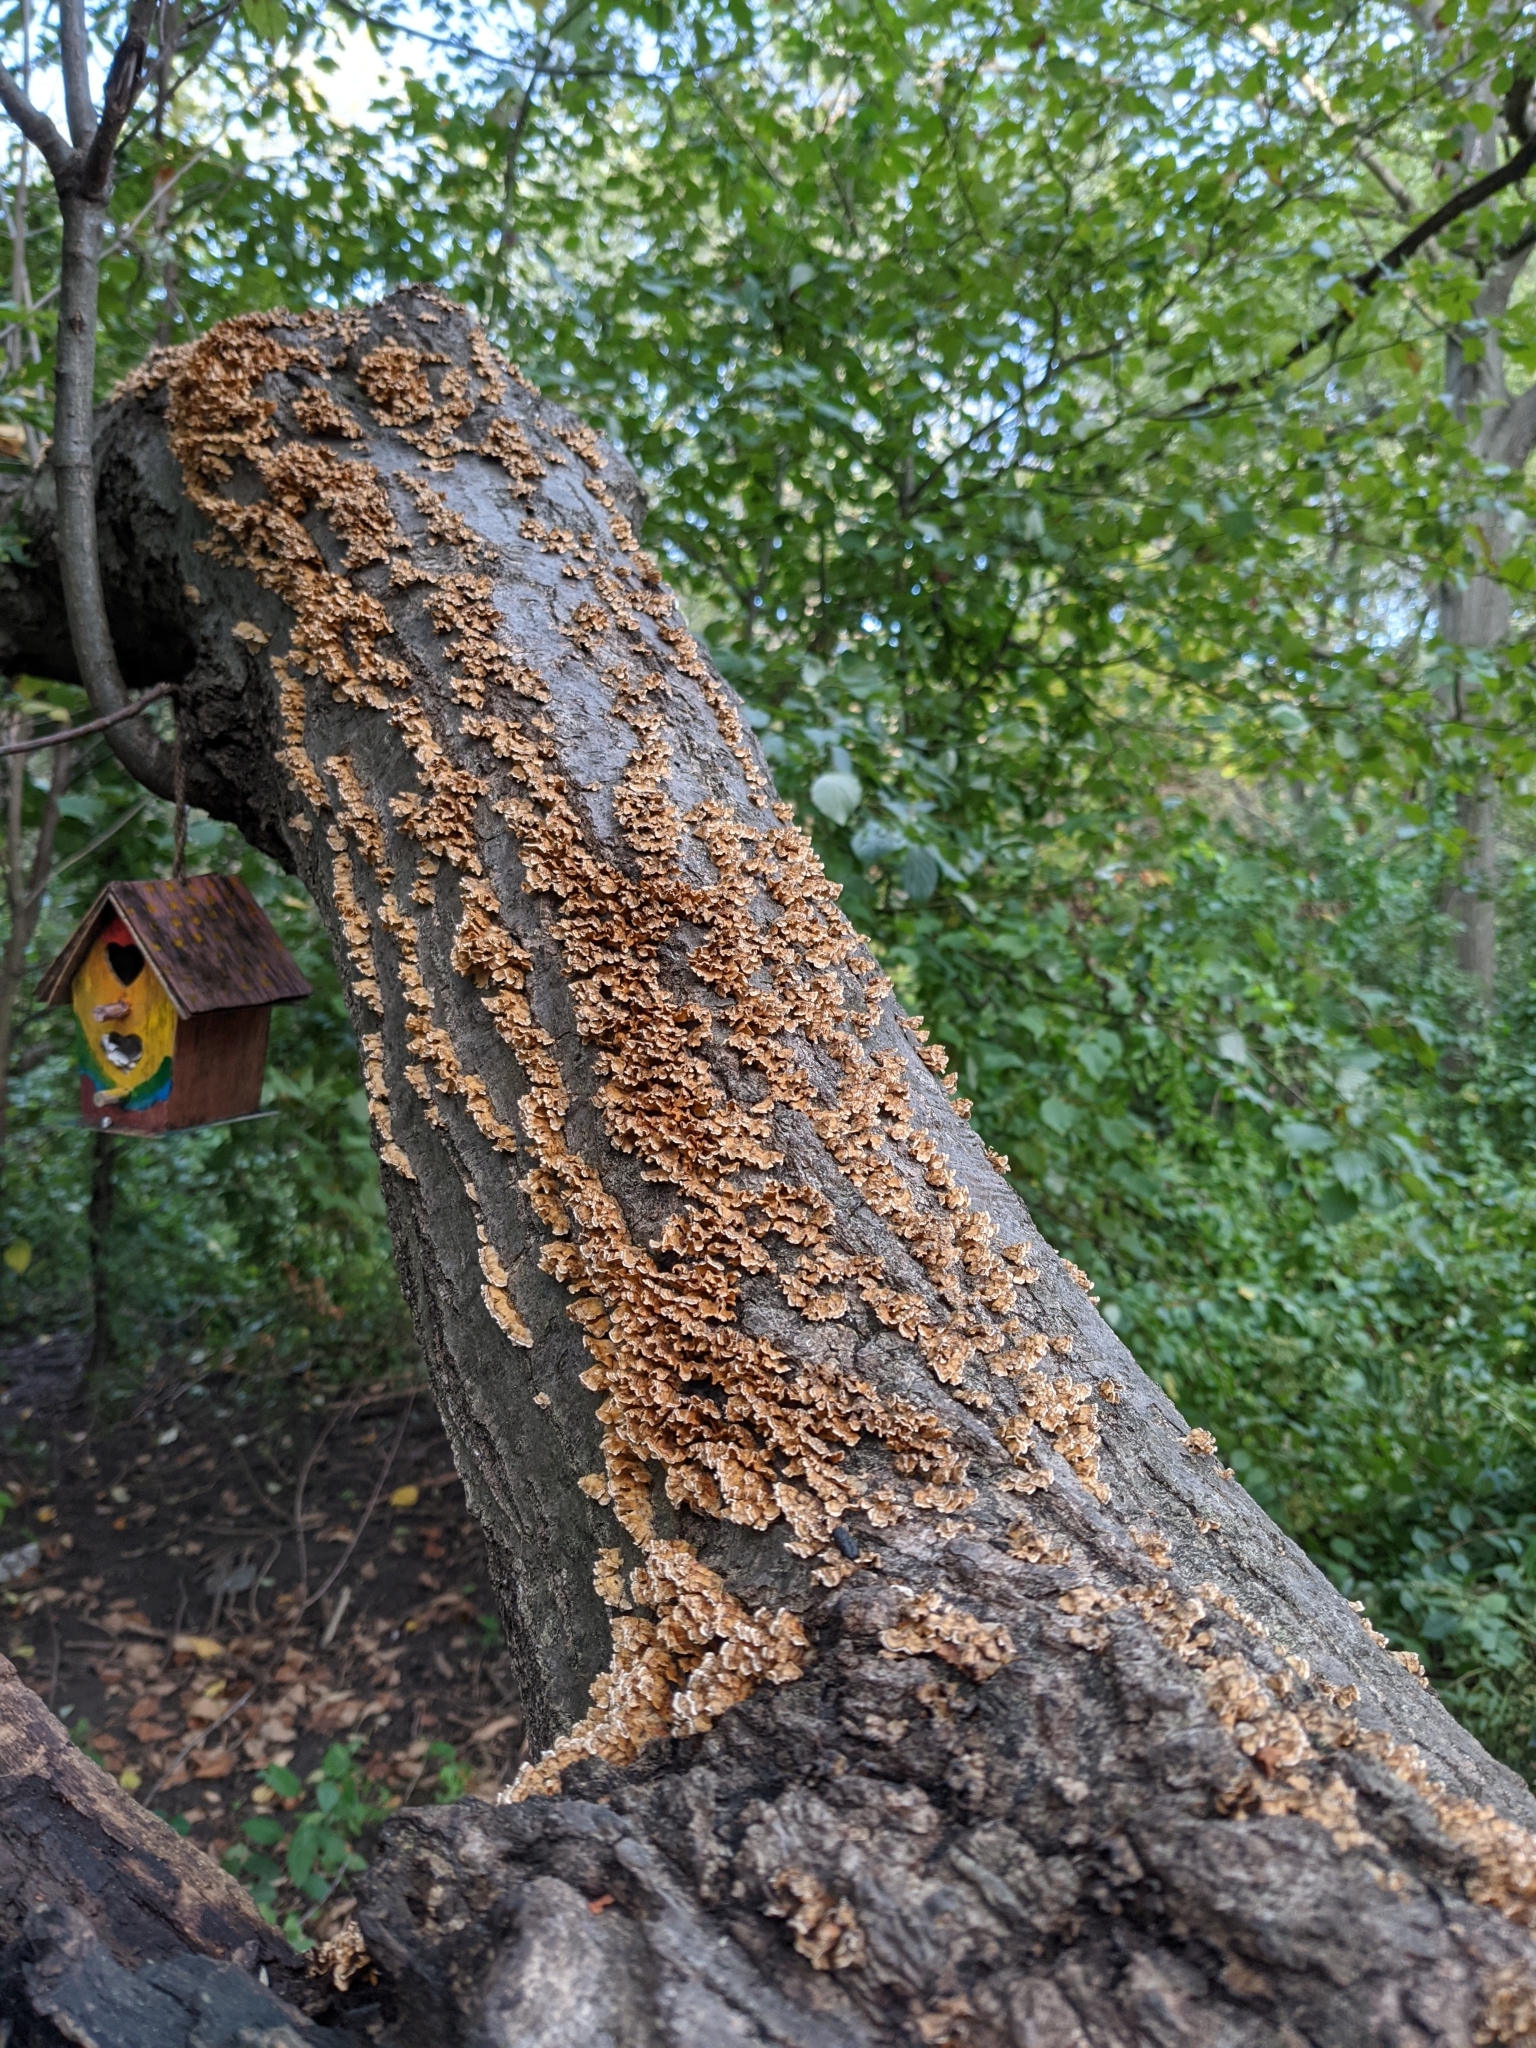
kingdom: Fungi
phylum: Basidiomycota
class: Agaricomycetes
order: Russulales
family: Stereaceae
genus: Stereum
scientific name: Stereum complicatum
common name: Crowded parchment
